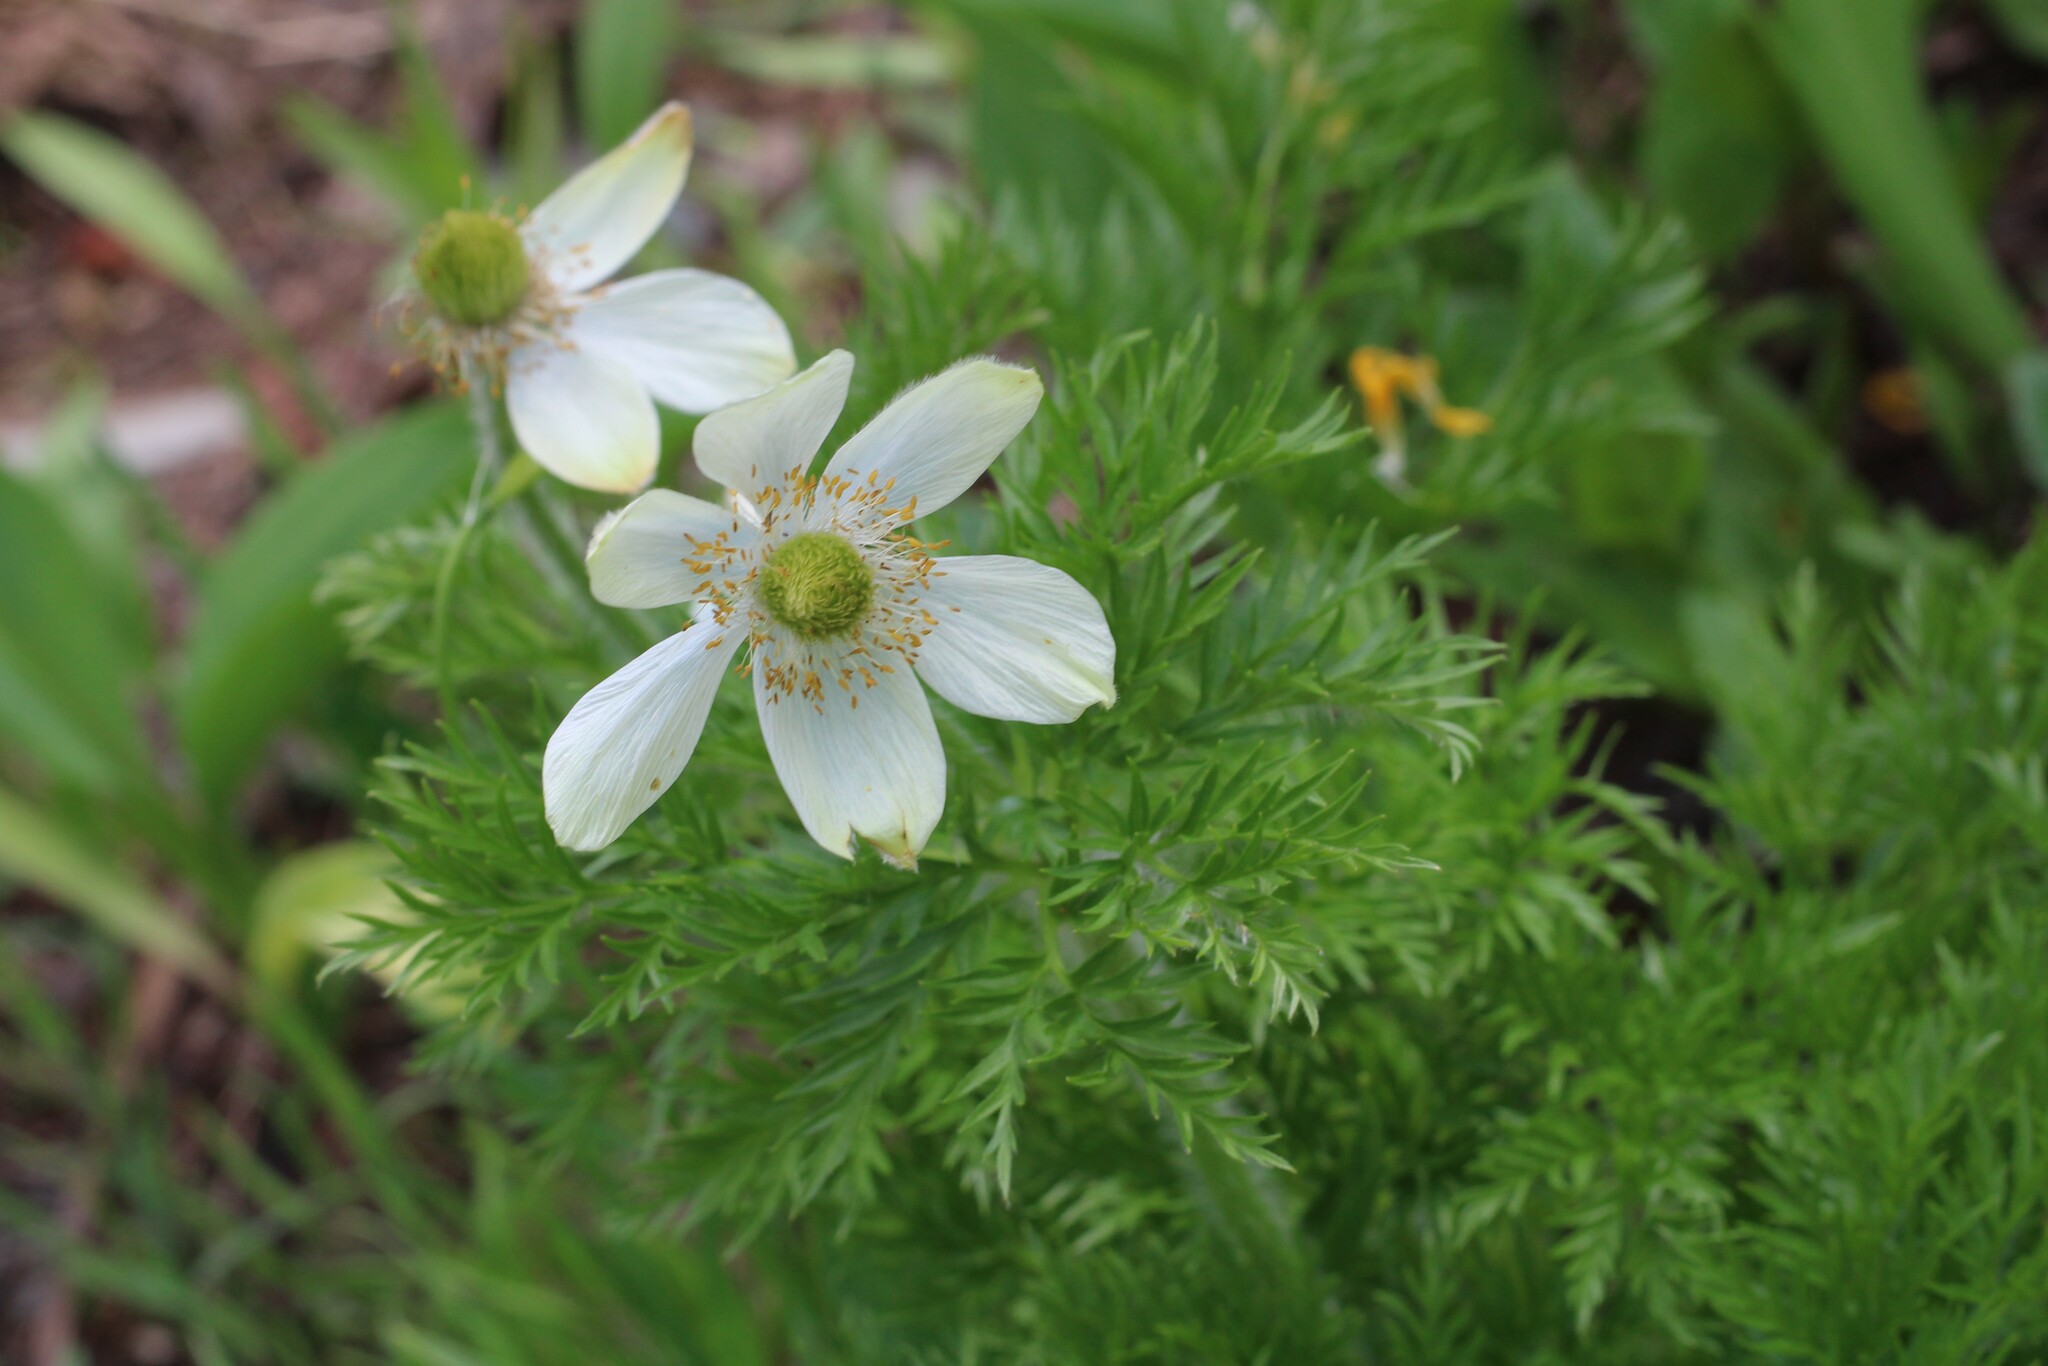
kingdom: Plantae
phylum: Tracheophyta
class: Magnoliopsida
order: Ranunculales
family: Ranunculaceae
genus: Pulsatilla
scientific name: Pulsatilla occidentalis
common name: Mountain pasqueflower
